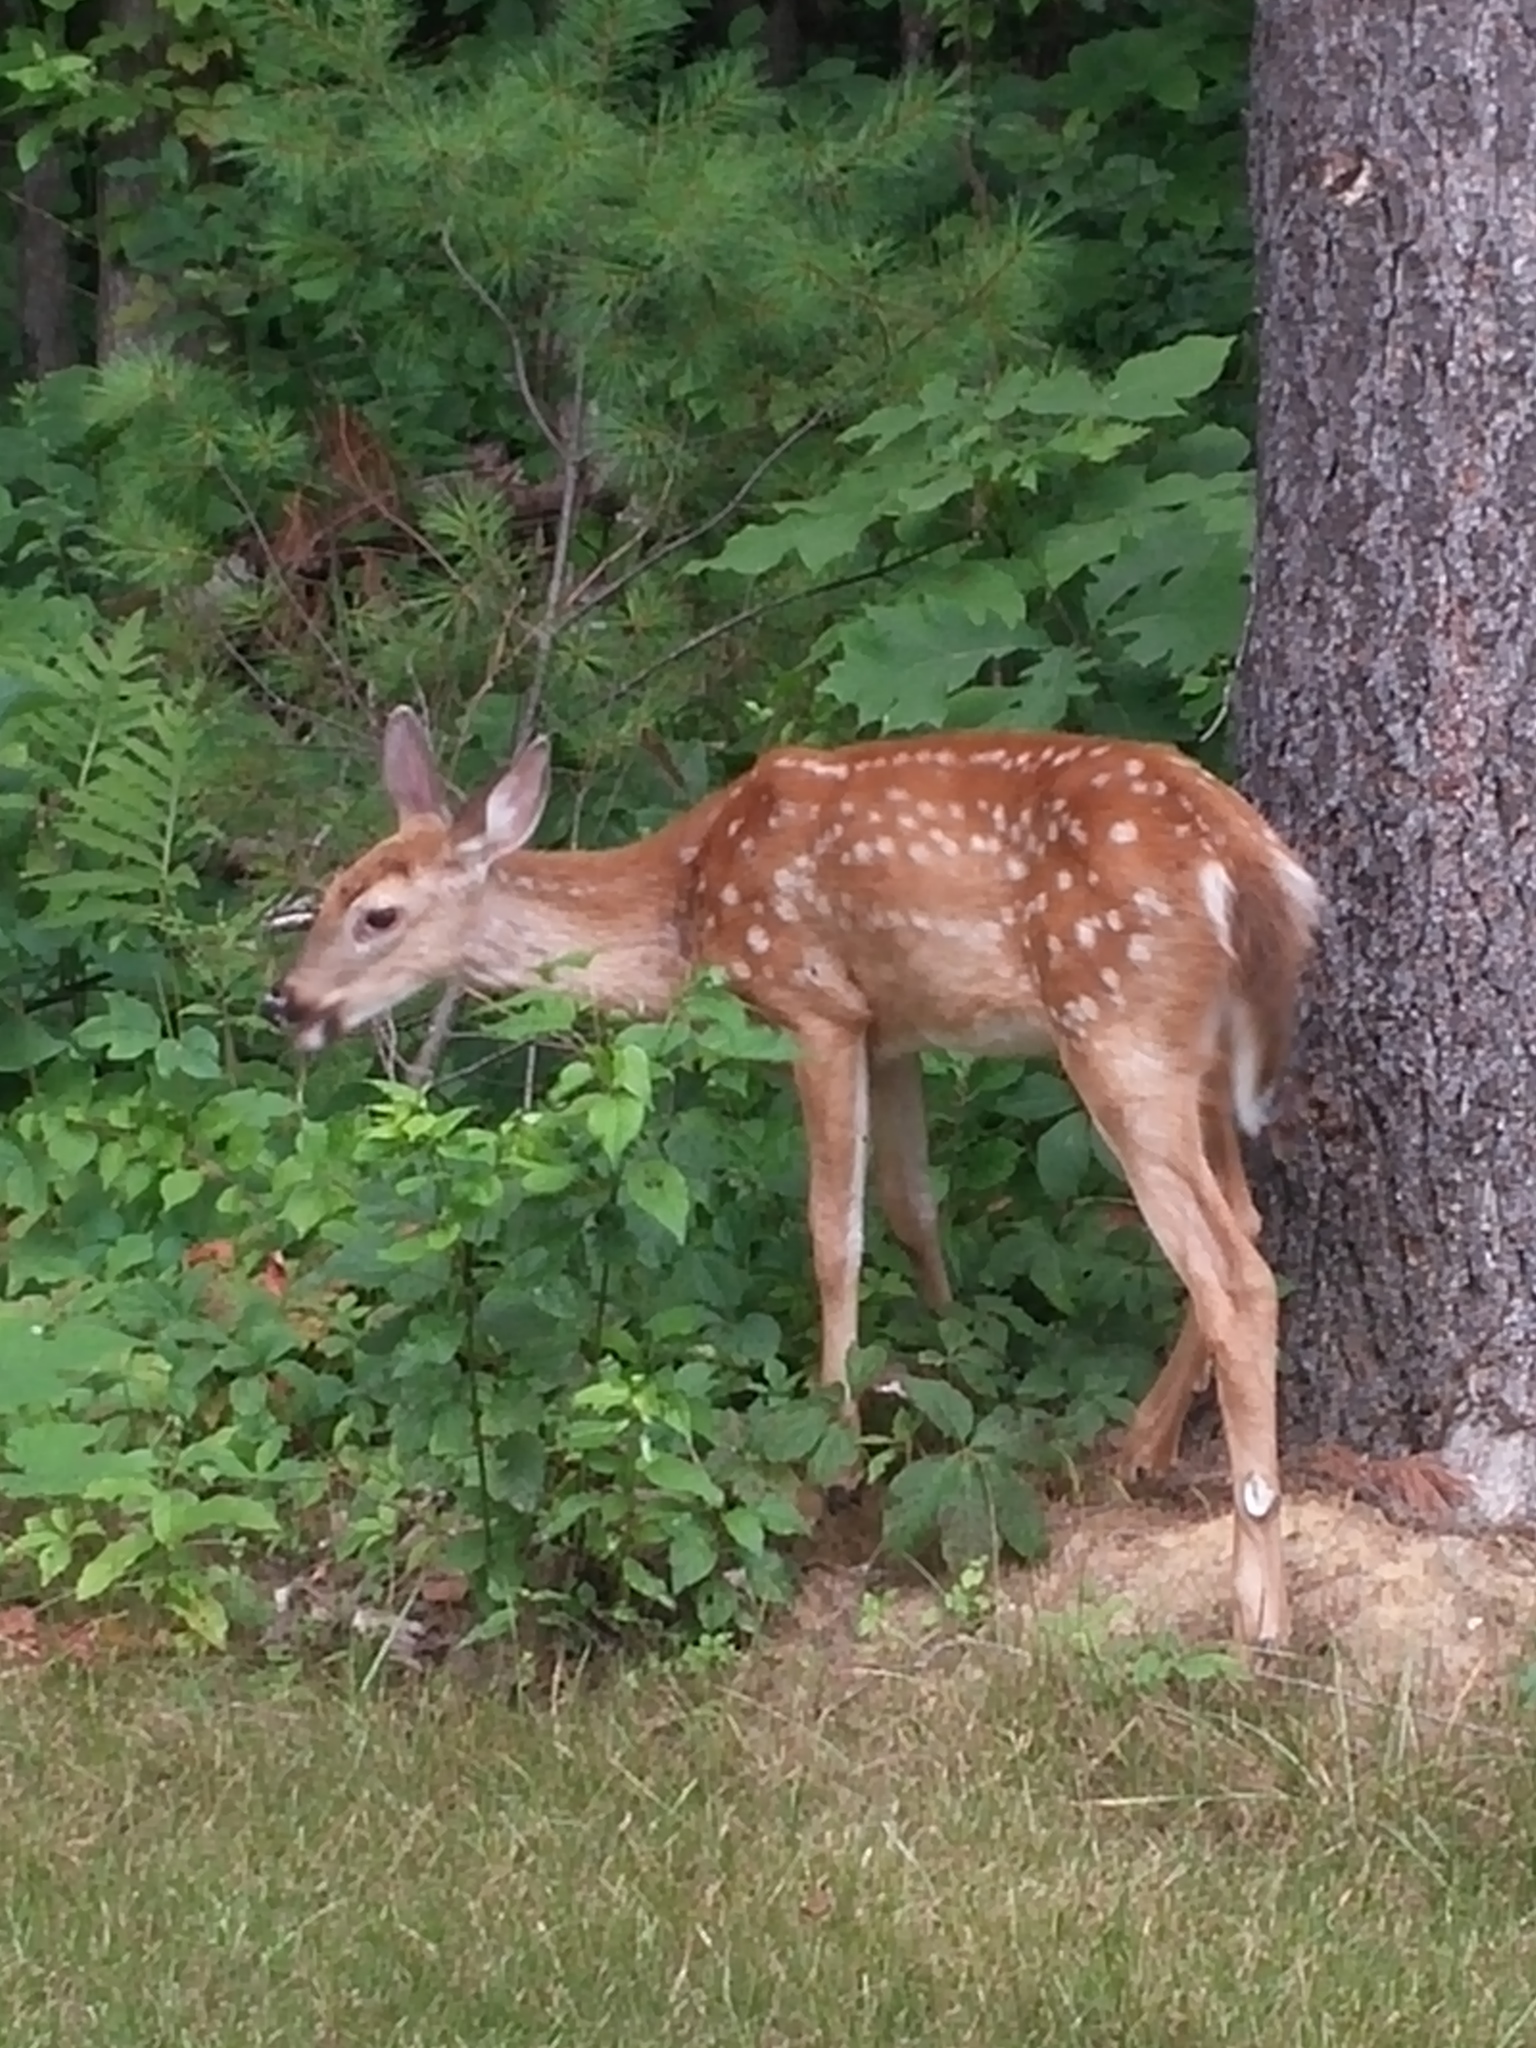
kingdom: Animalia
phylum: Chordata
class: Mammalia
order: Artiodactyla
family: Cervidae
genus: Odocoileus
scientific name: Odocoileus virginianus
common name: White-tailed deer
